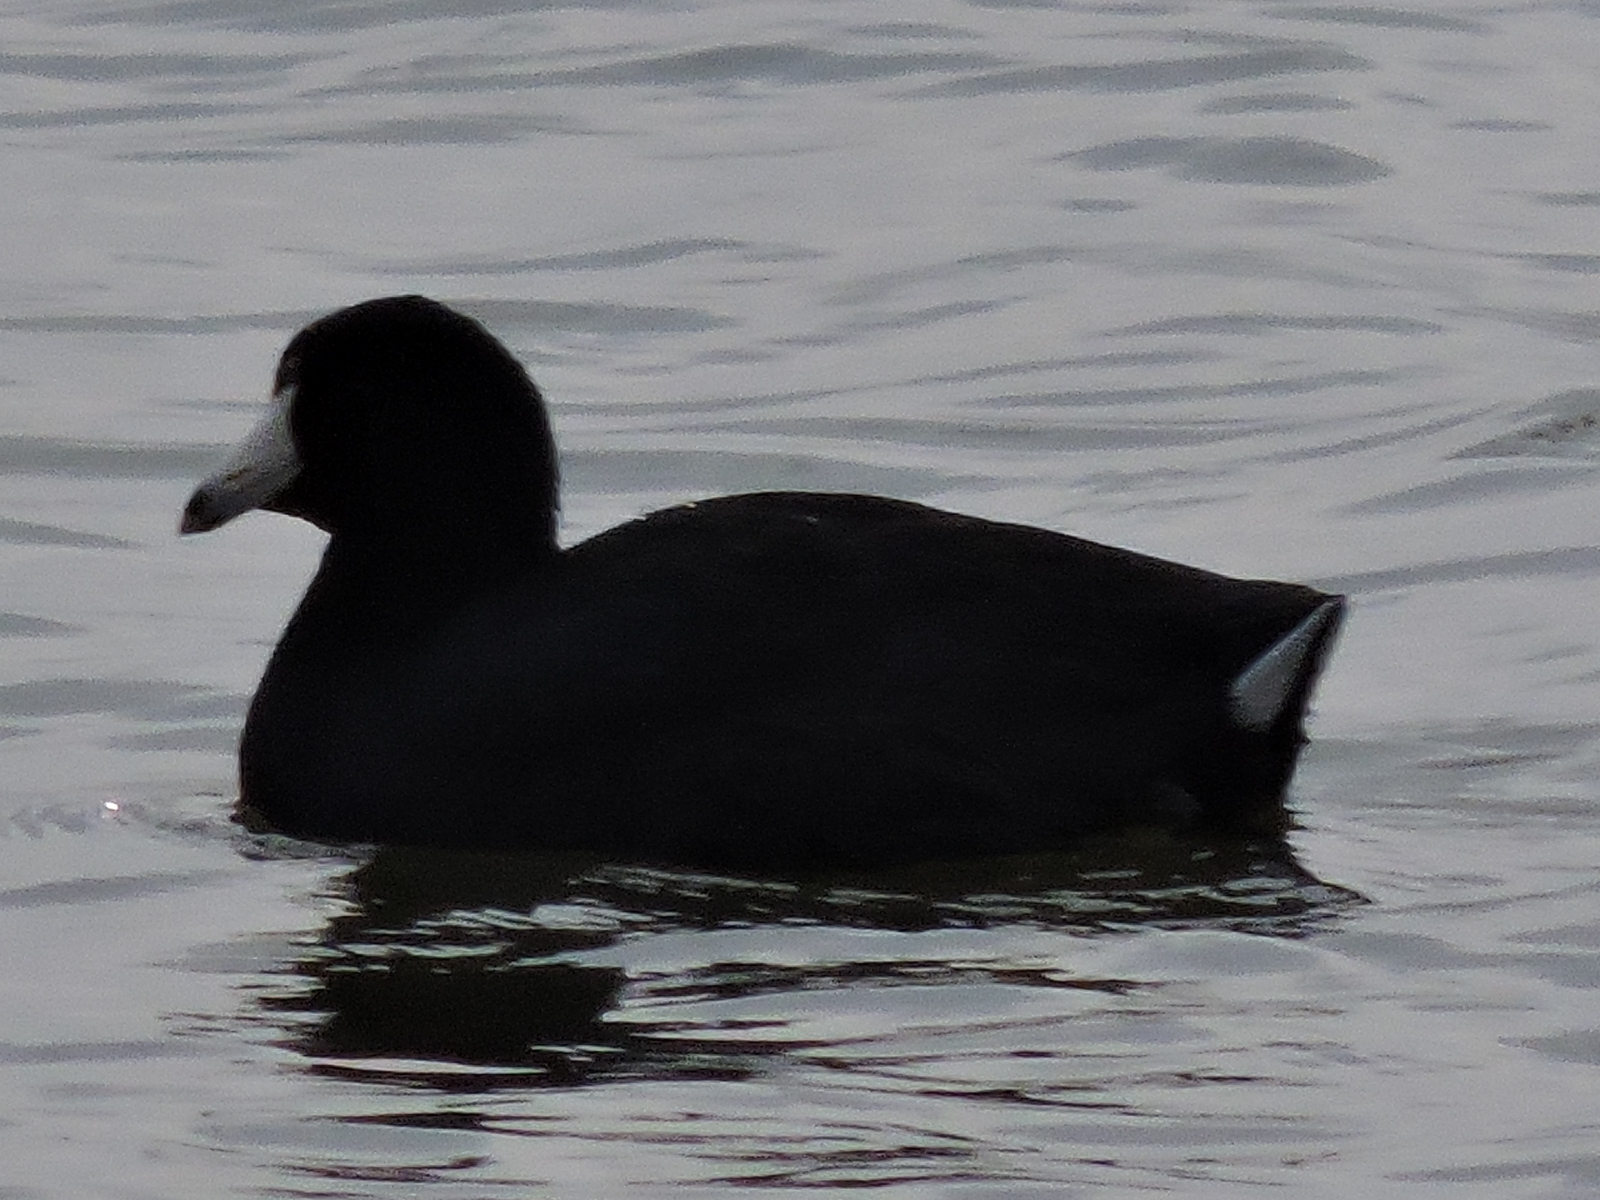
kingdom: Animalia
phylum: Chordata
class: Aves
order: Gruiformes
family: Rallidae
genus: Fulica
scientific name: Fulica americana
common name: American coot
